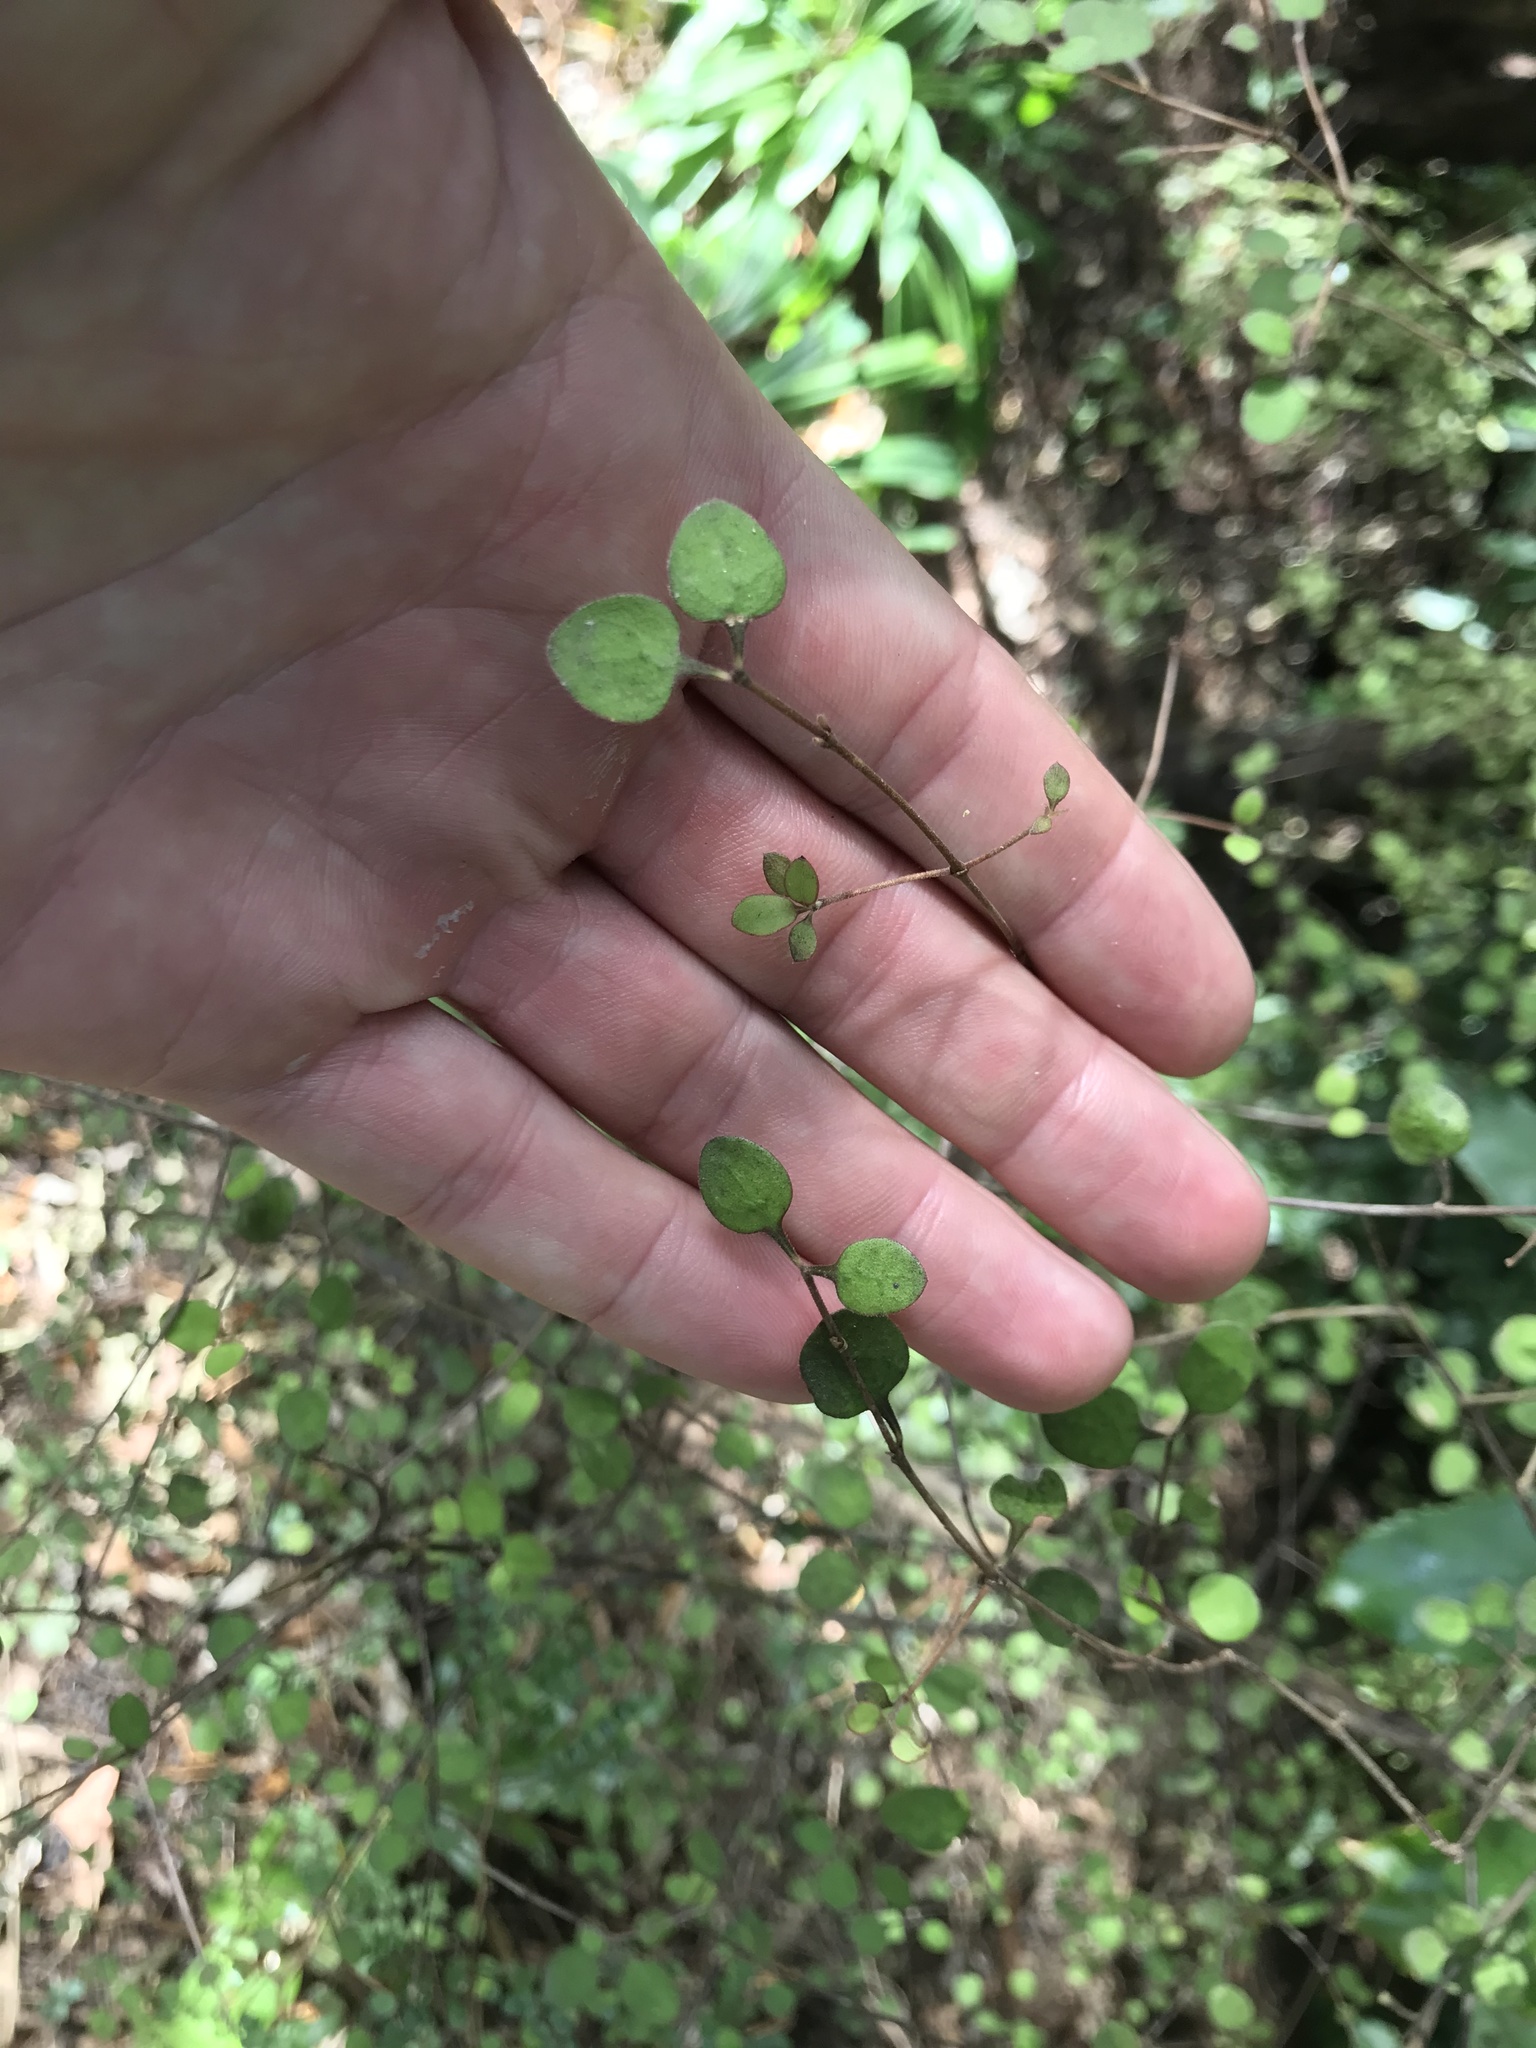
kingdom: Plantae
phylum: Tracheophyta
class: Magnoliopsida
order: Gentianales
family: Rubiaceae
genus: Coprosma
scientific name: Coprosma crassifolia
